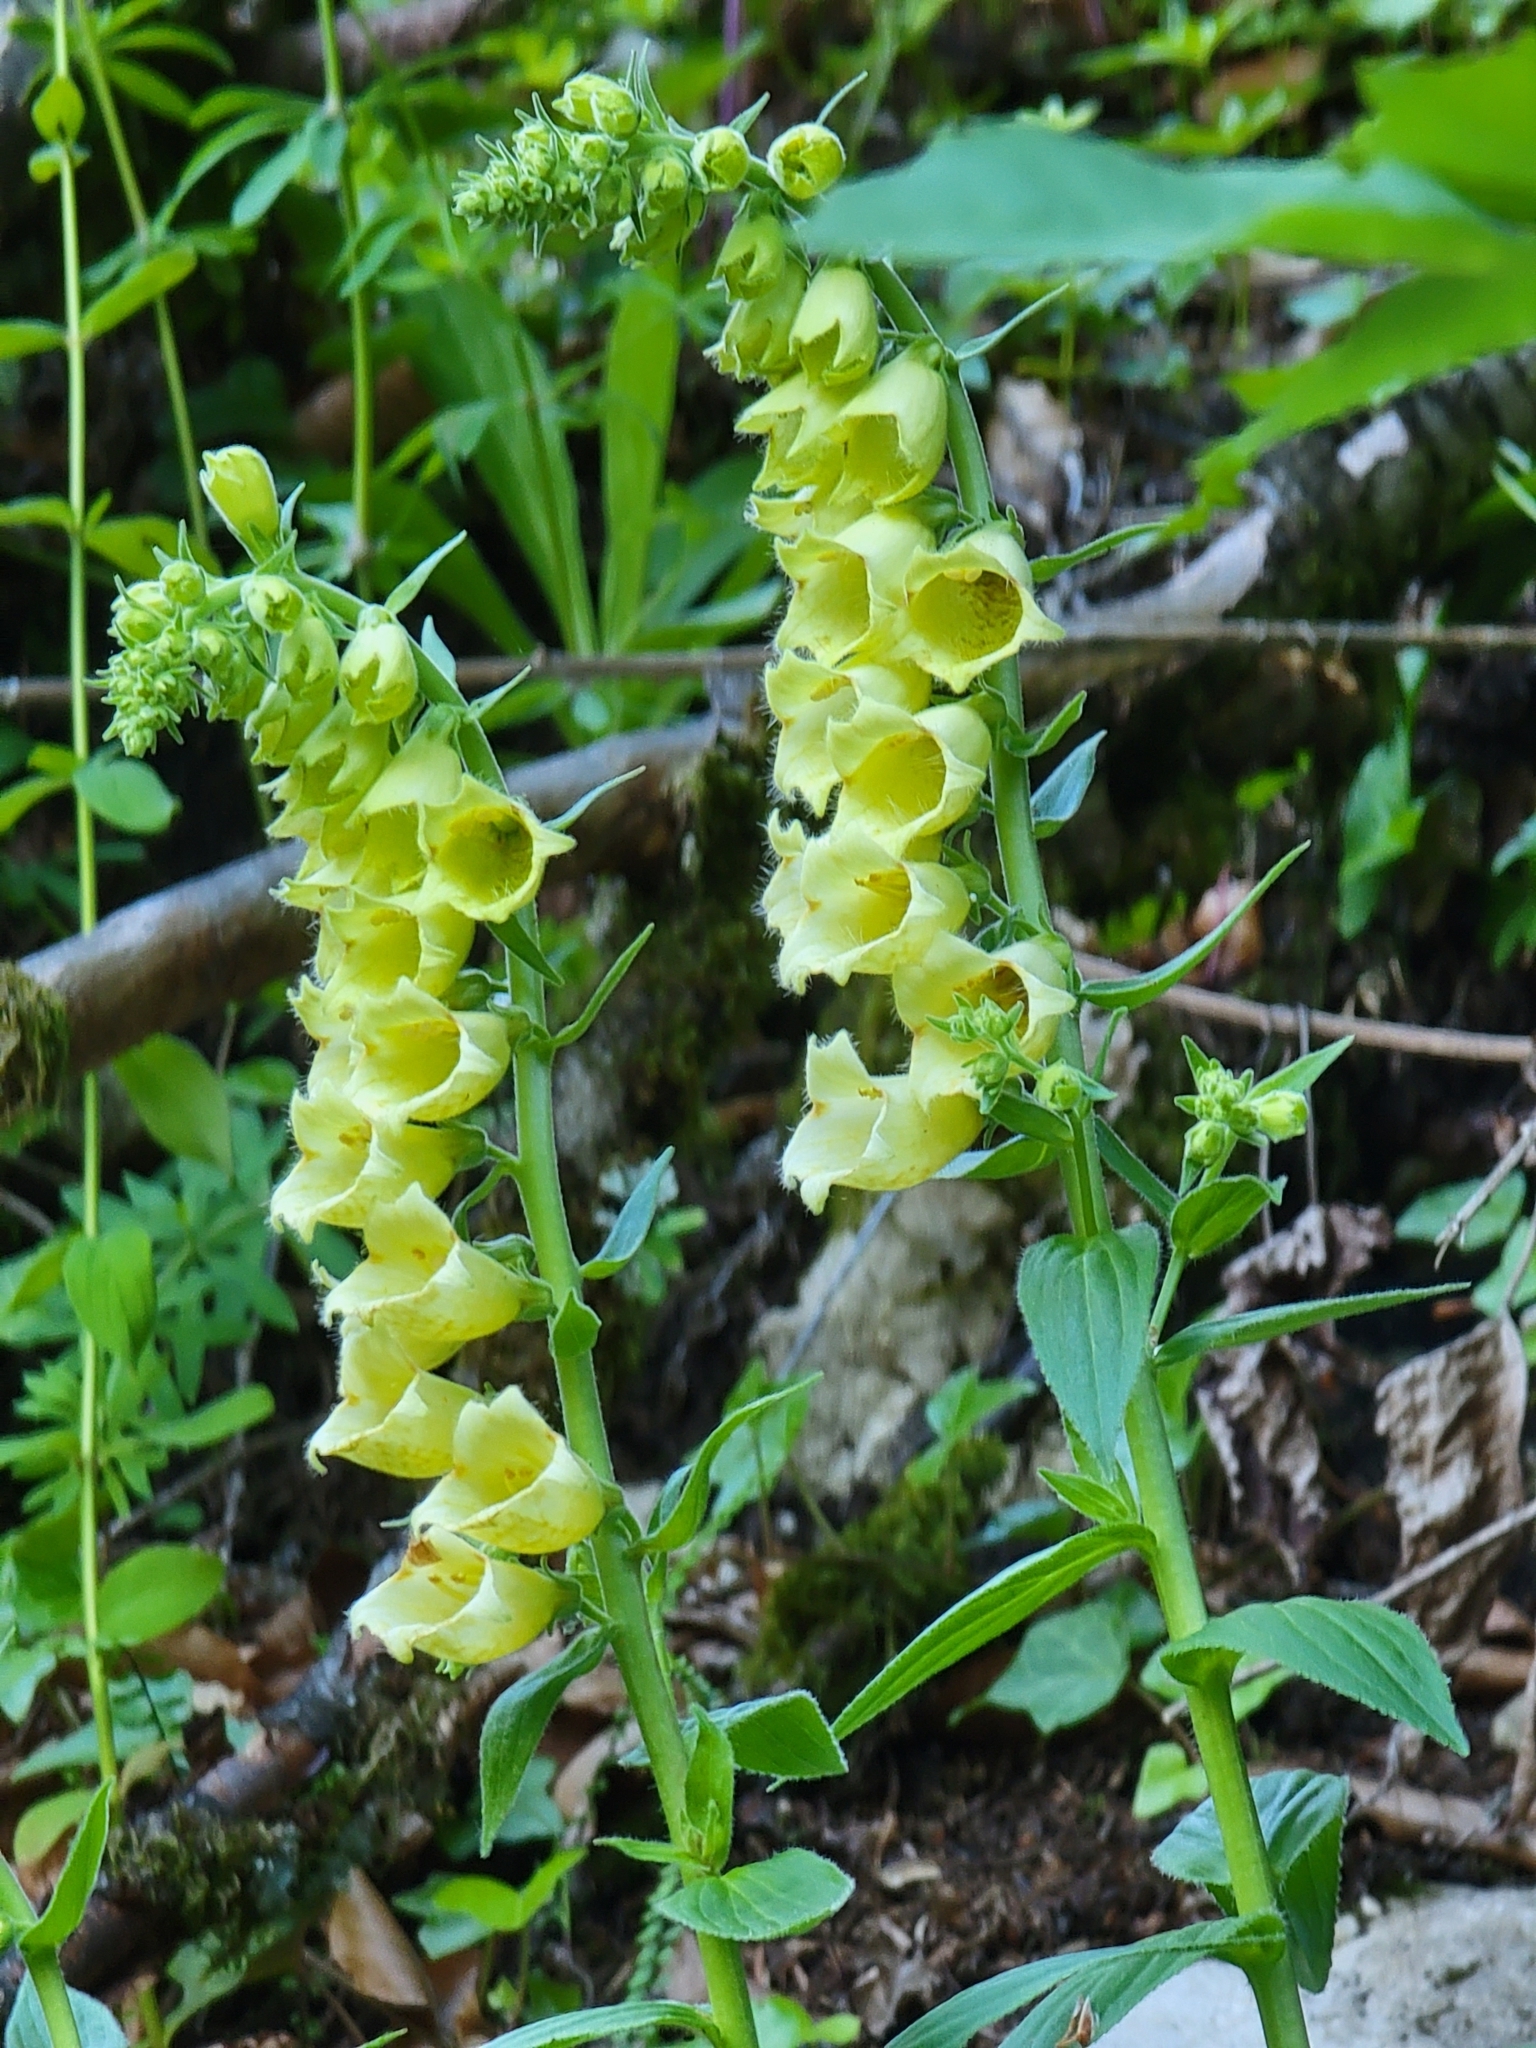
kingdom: Plantae
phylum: Tracheophyta
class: Magnoliopsida
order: Lamiales
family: Plantaginaceae
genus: Digitalis
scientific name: Digitalis grandiflora
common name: Yellow foxglove
